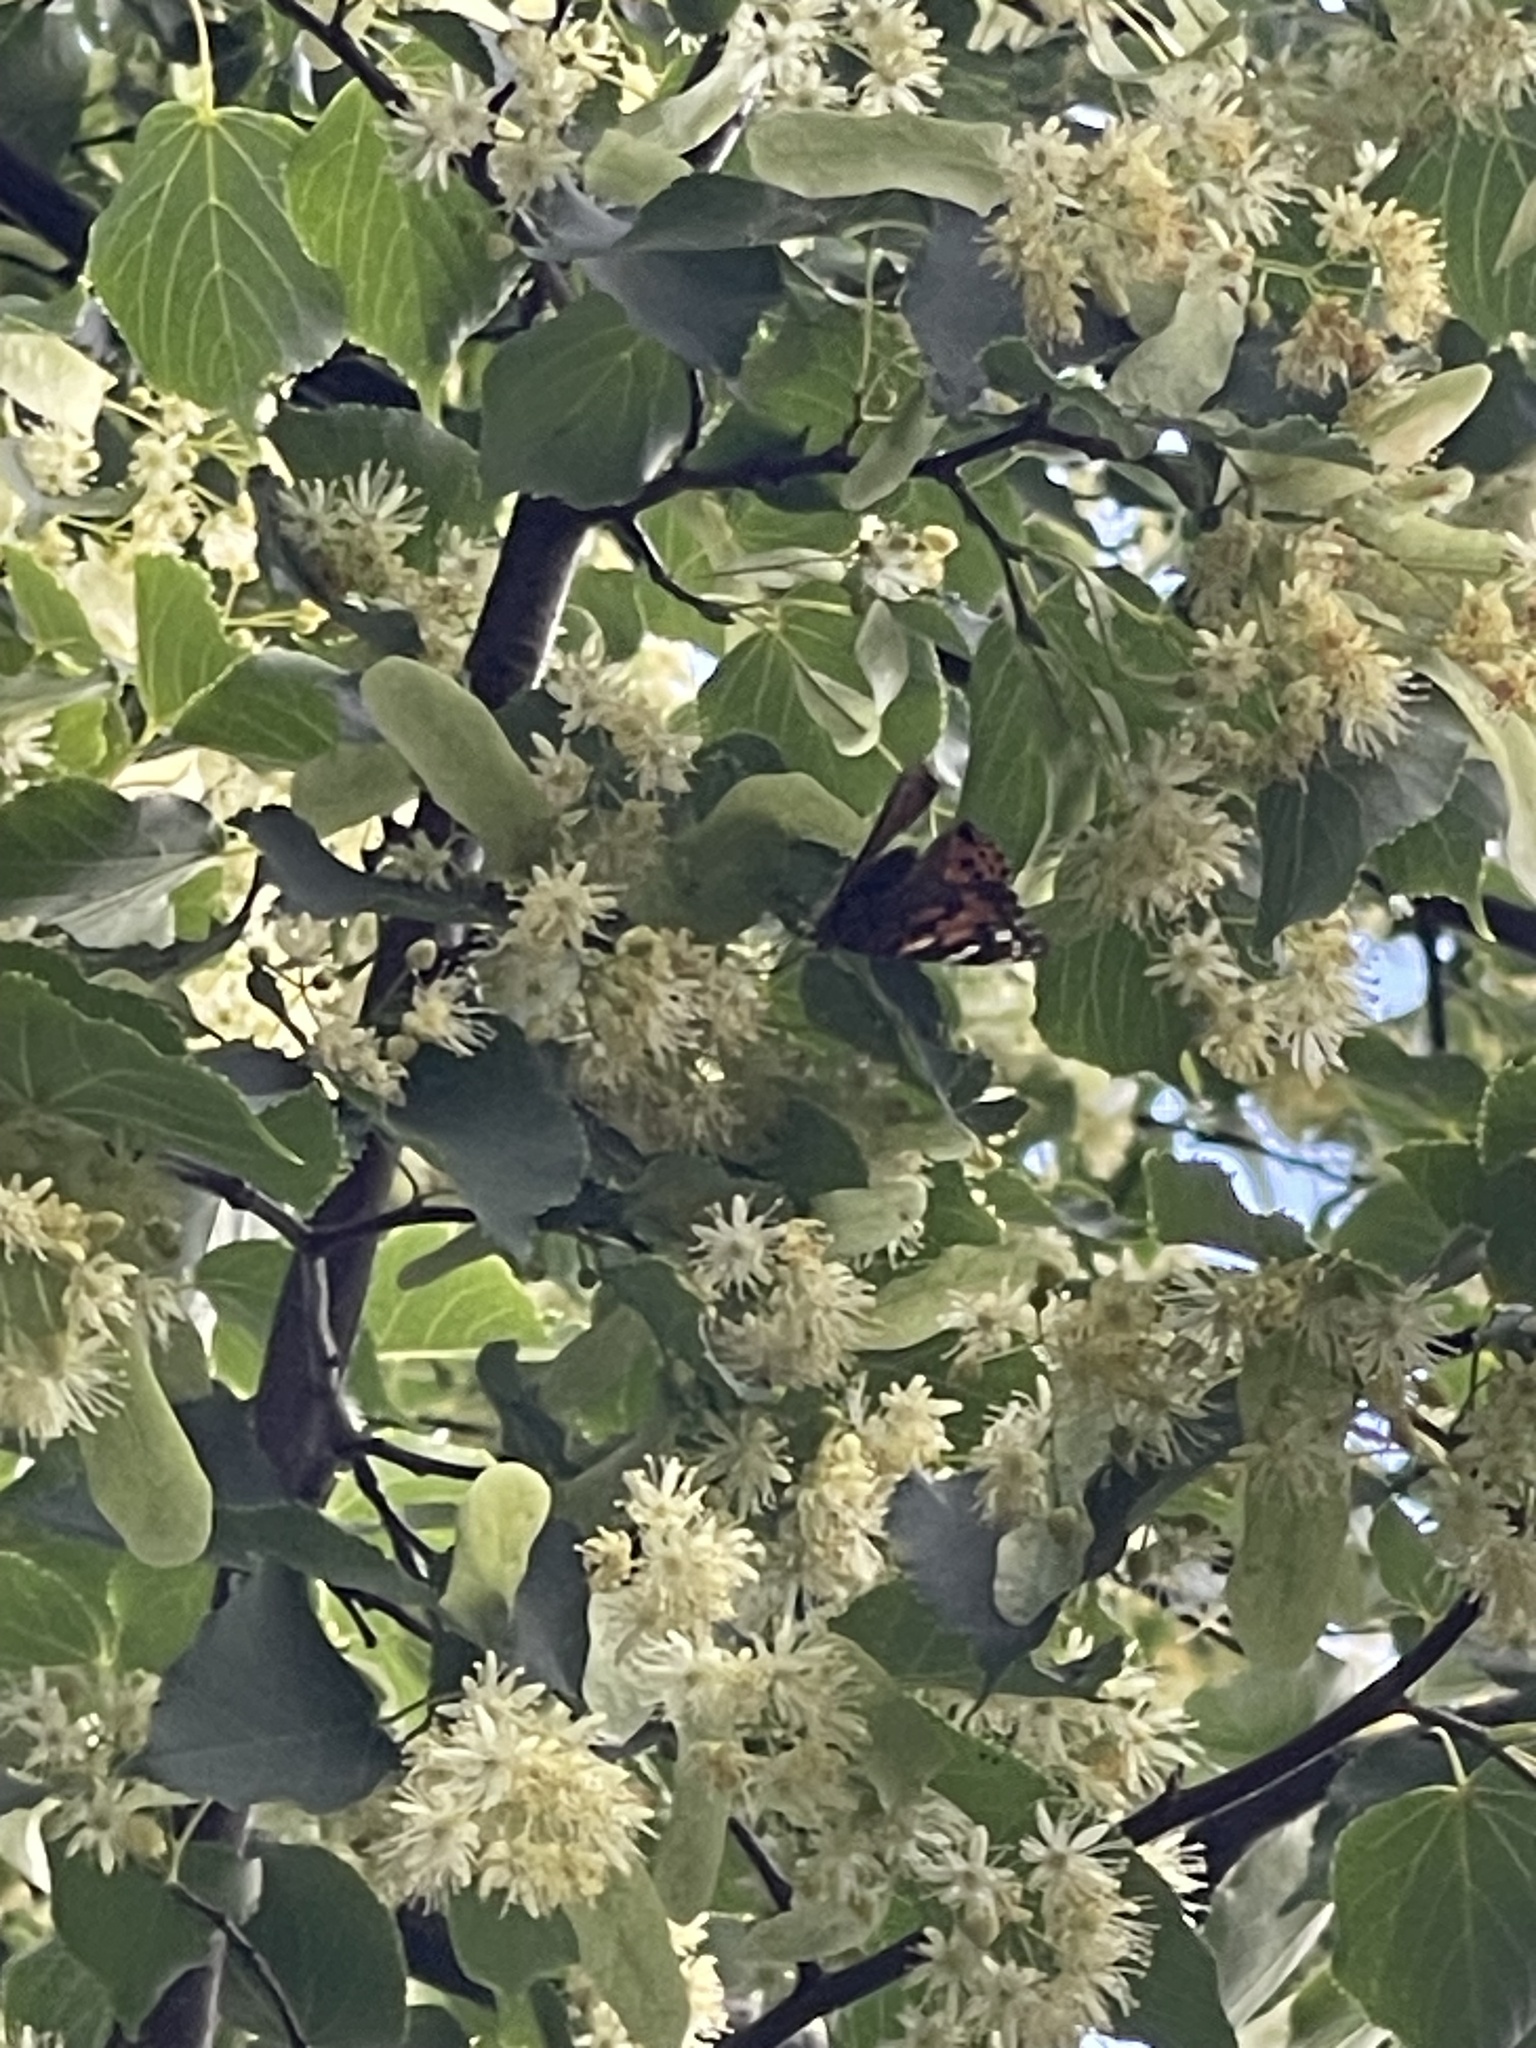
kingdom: Animalia
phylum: Arthropoda
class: Insecta
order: Lepidoptera
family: Nymphalidae
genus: Vanessa
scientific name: Vanessa cardui
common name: Painted lady
